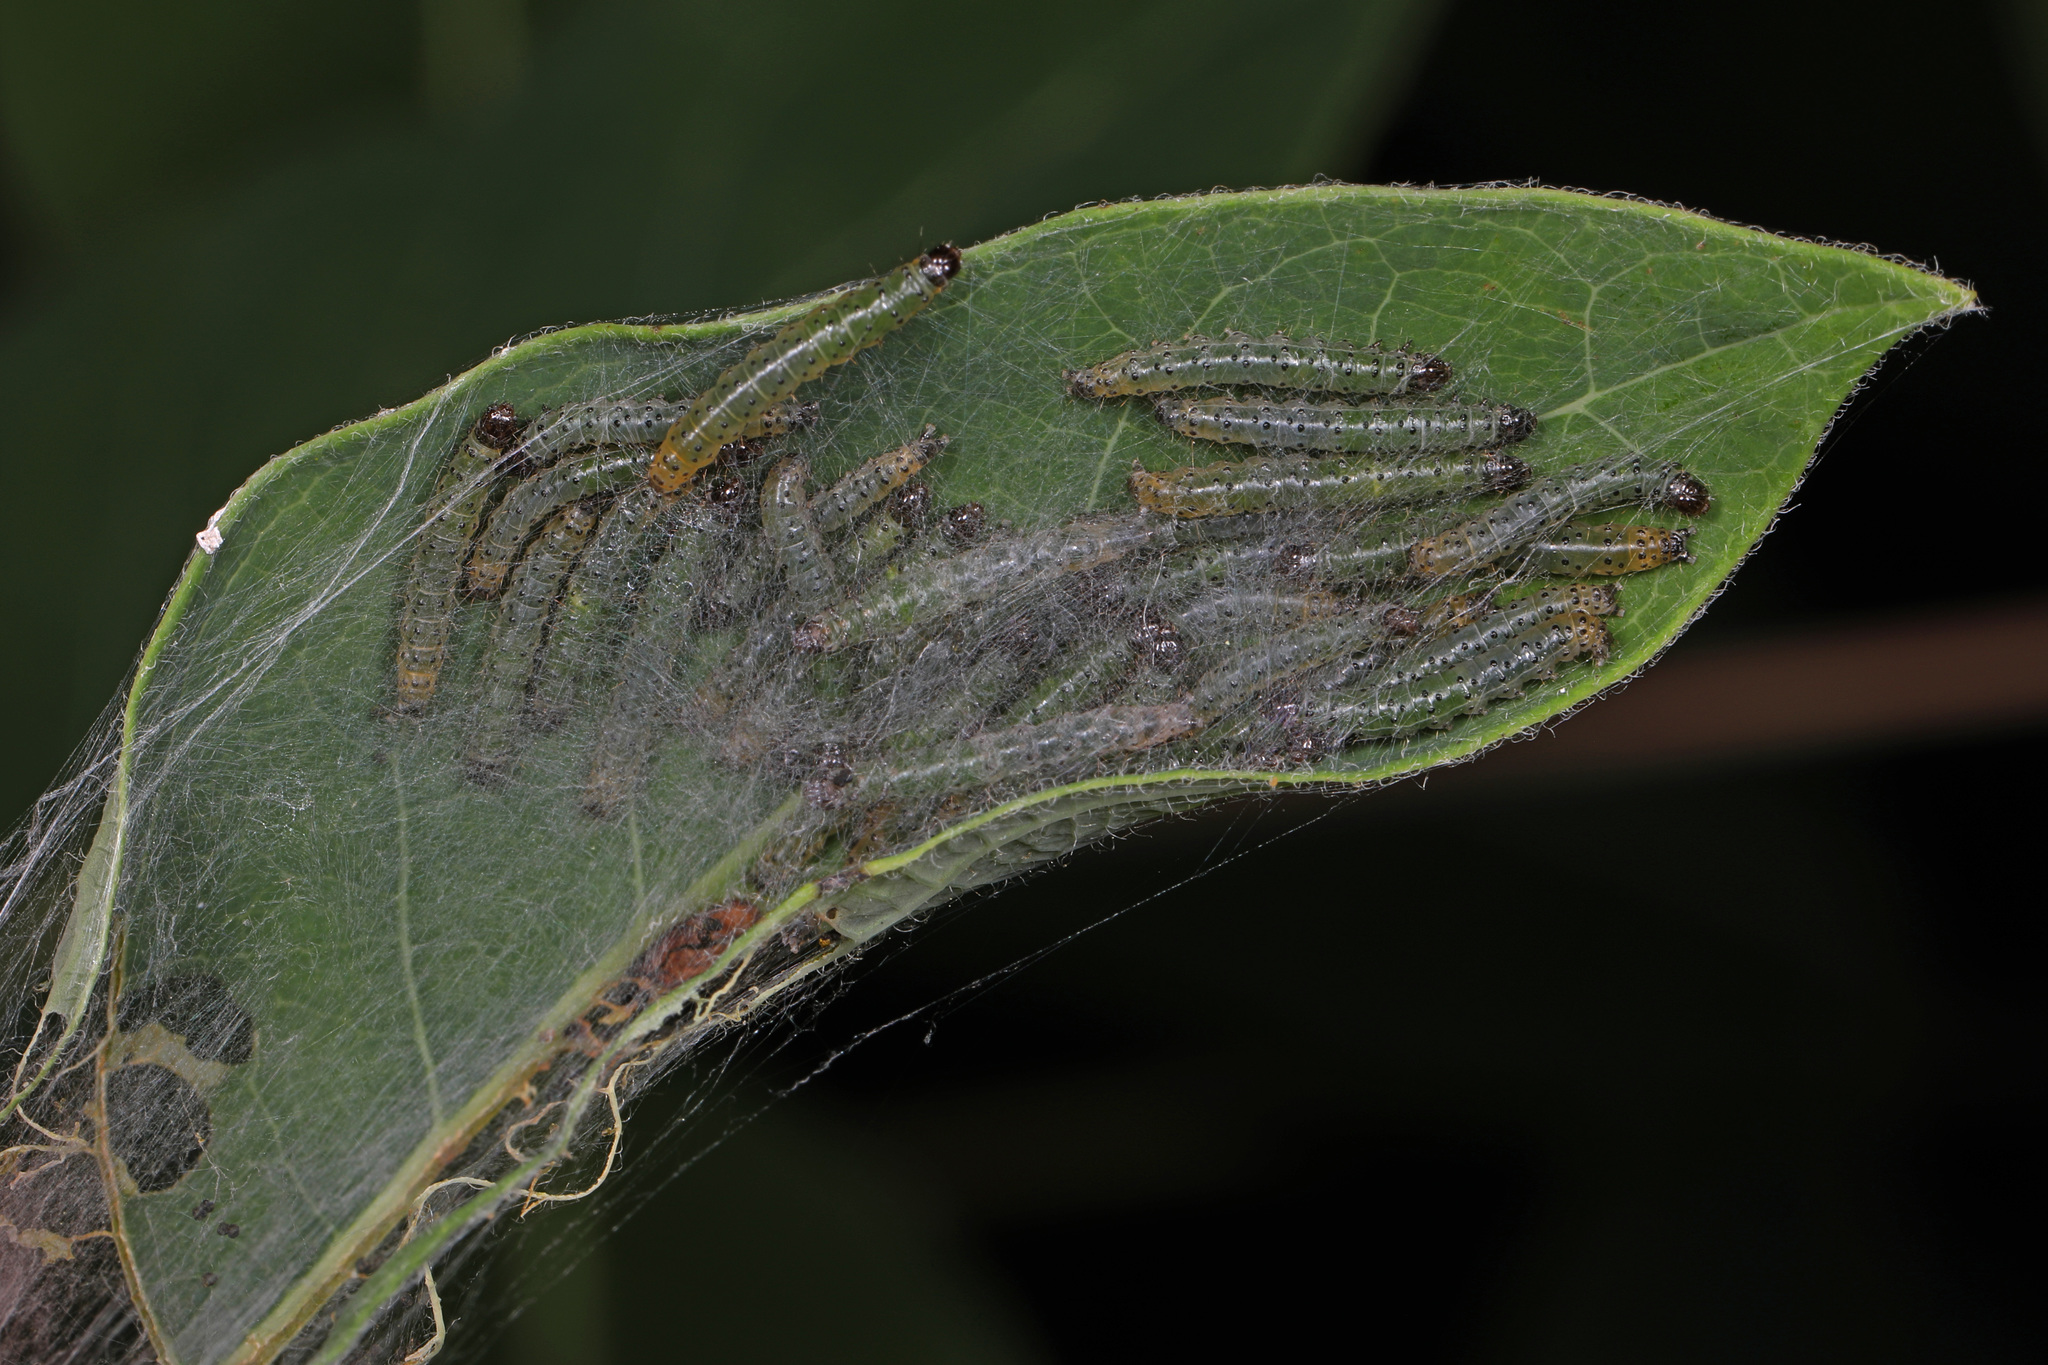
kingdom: Animalia
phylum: Arthropoda
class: Insecta
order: Lepidoptera
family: Crambidae
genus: Saucrobotys
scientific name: Saucrobotys futilalis
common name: Dogbane saucrobotys moth
